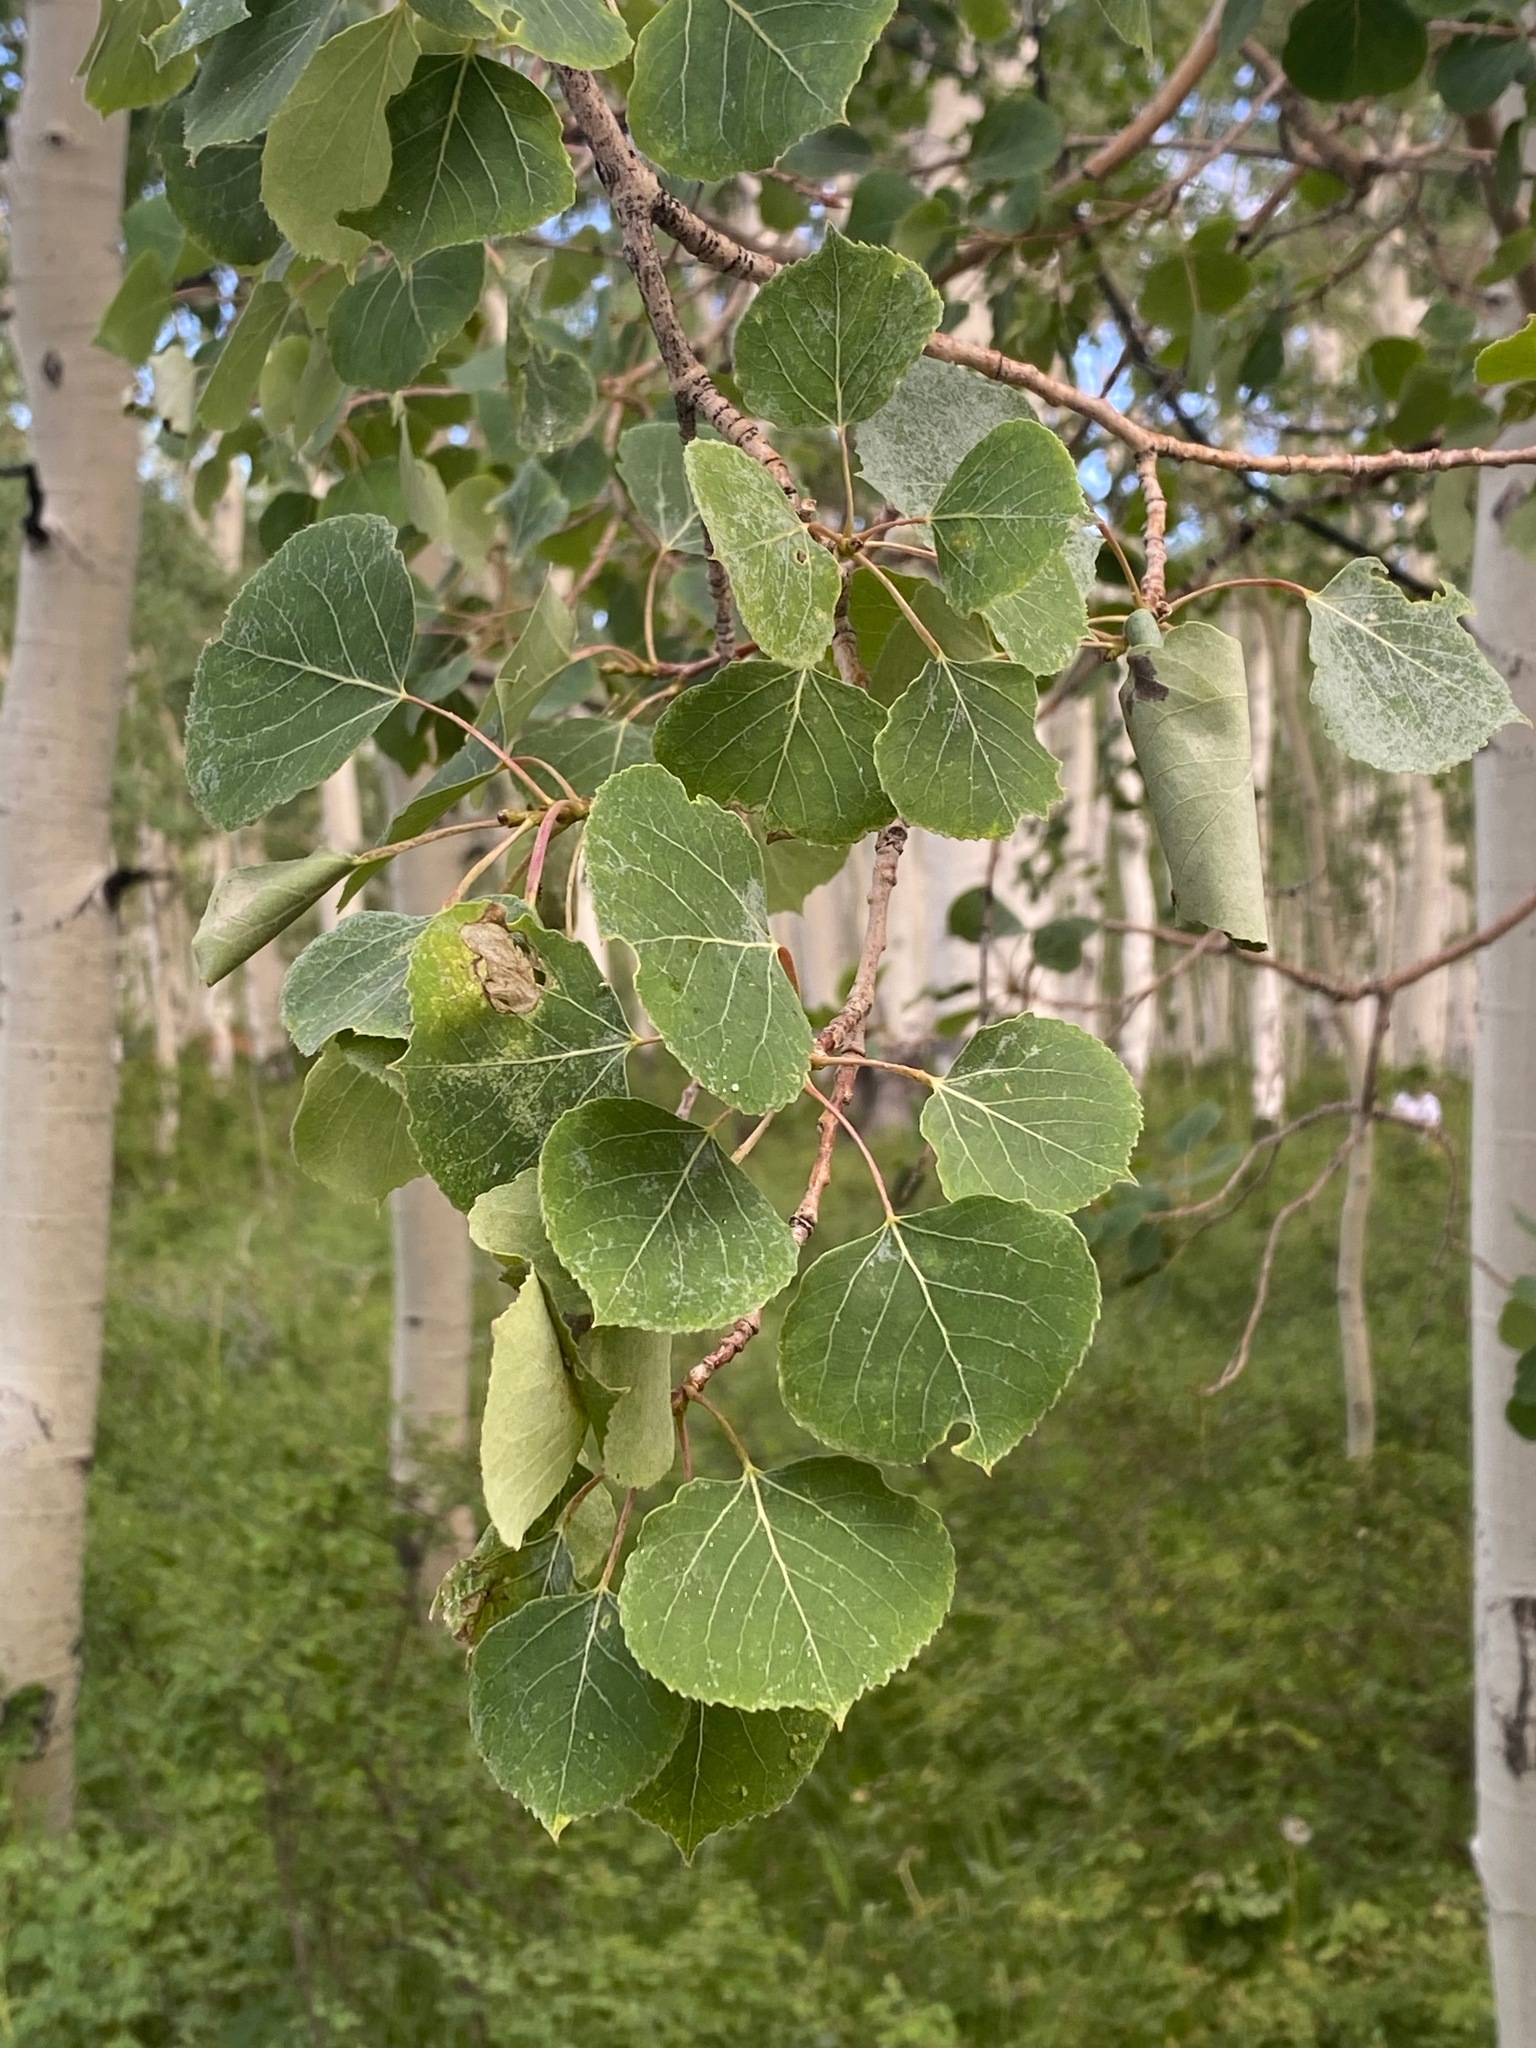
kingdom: Plantae
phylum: Tracheophyta
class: Magnoliopsida
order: Malpighiales
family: Salicaceae
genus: Populus
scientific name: Populus tremuloides
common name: Quaking aspen
